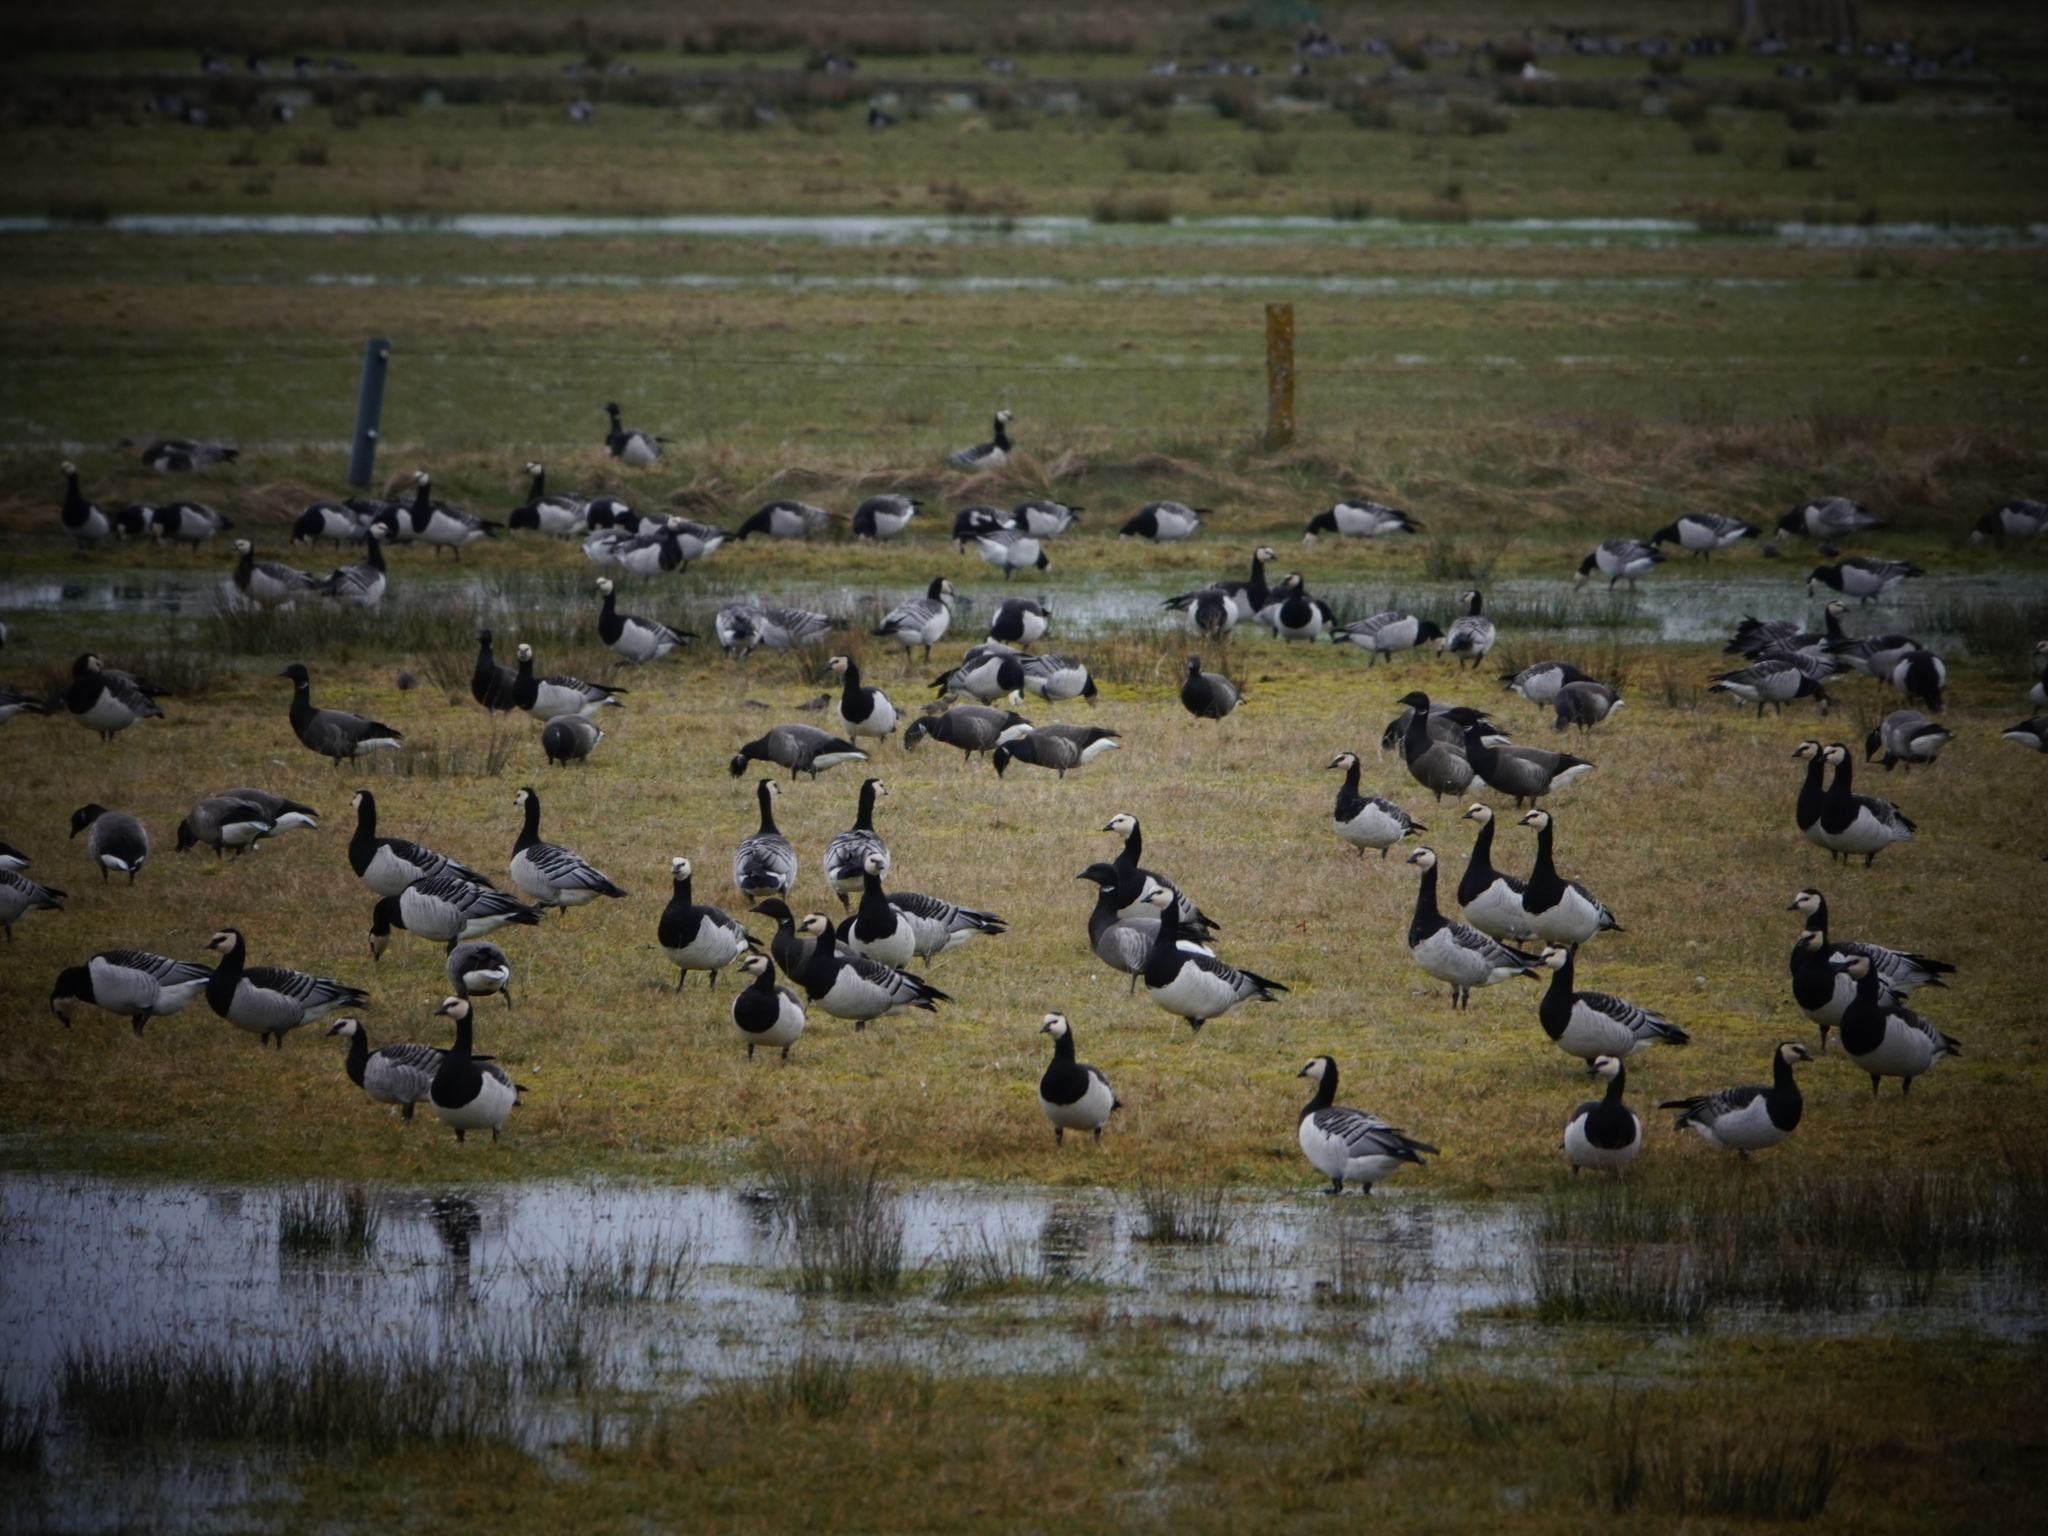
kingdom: Animalia
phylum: Chordata
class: Aves
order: Anseriformes
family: Anatidae
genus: Branta
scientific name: Branta leucopsis
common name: Barnacle goose
